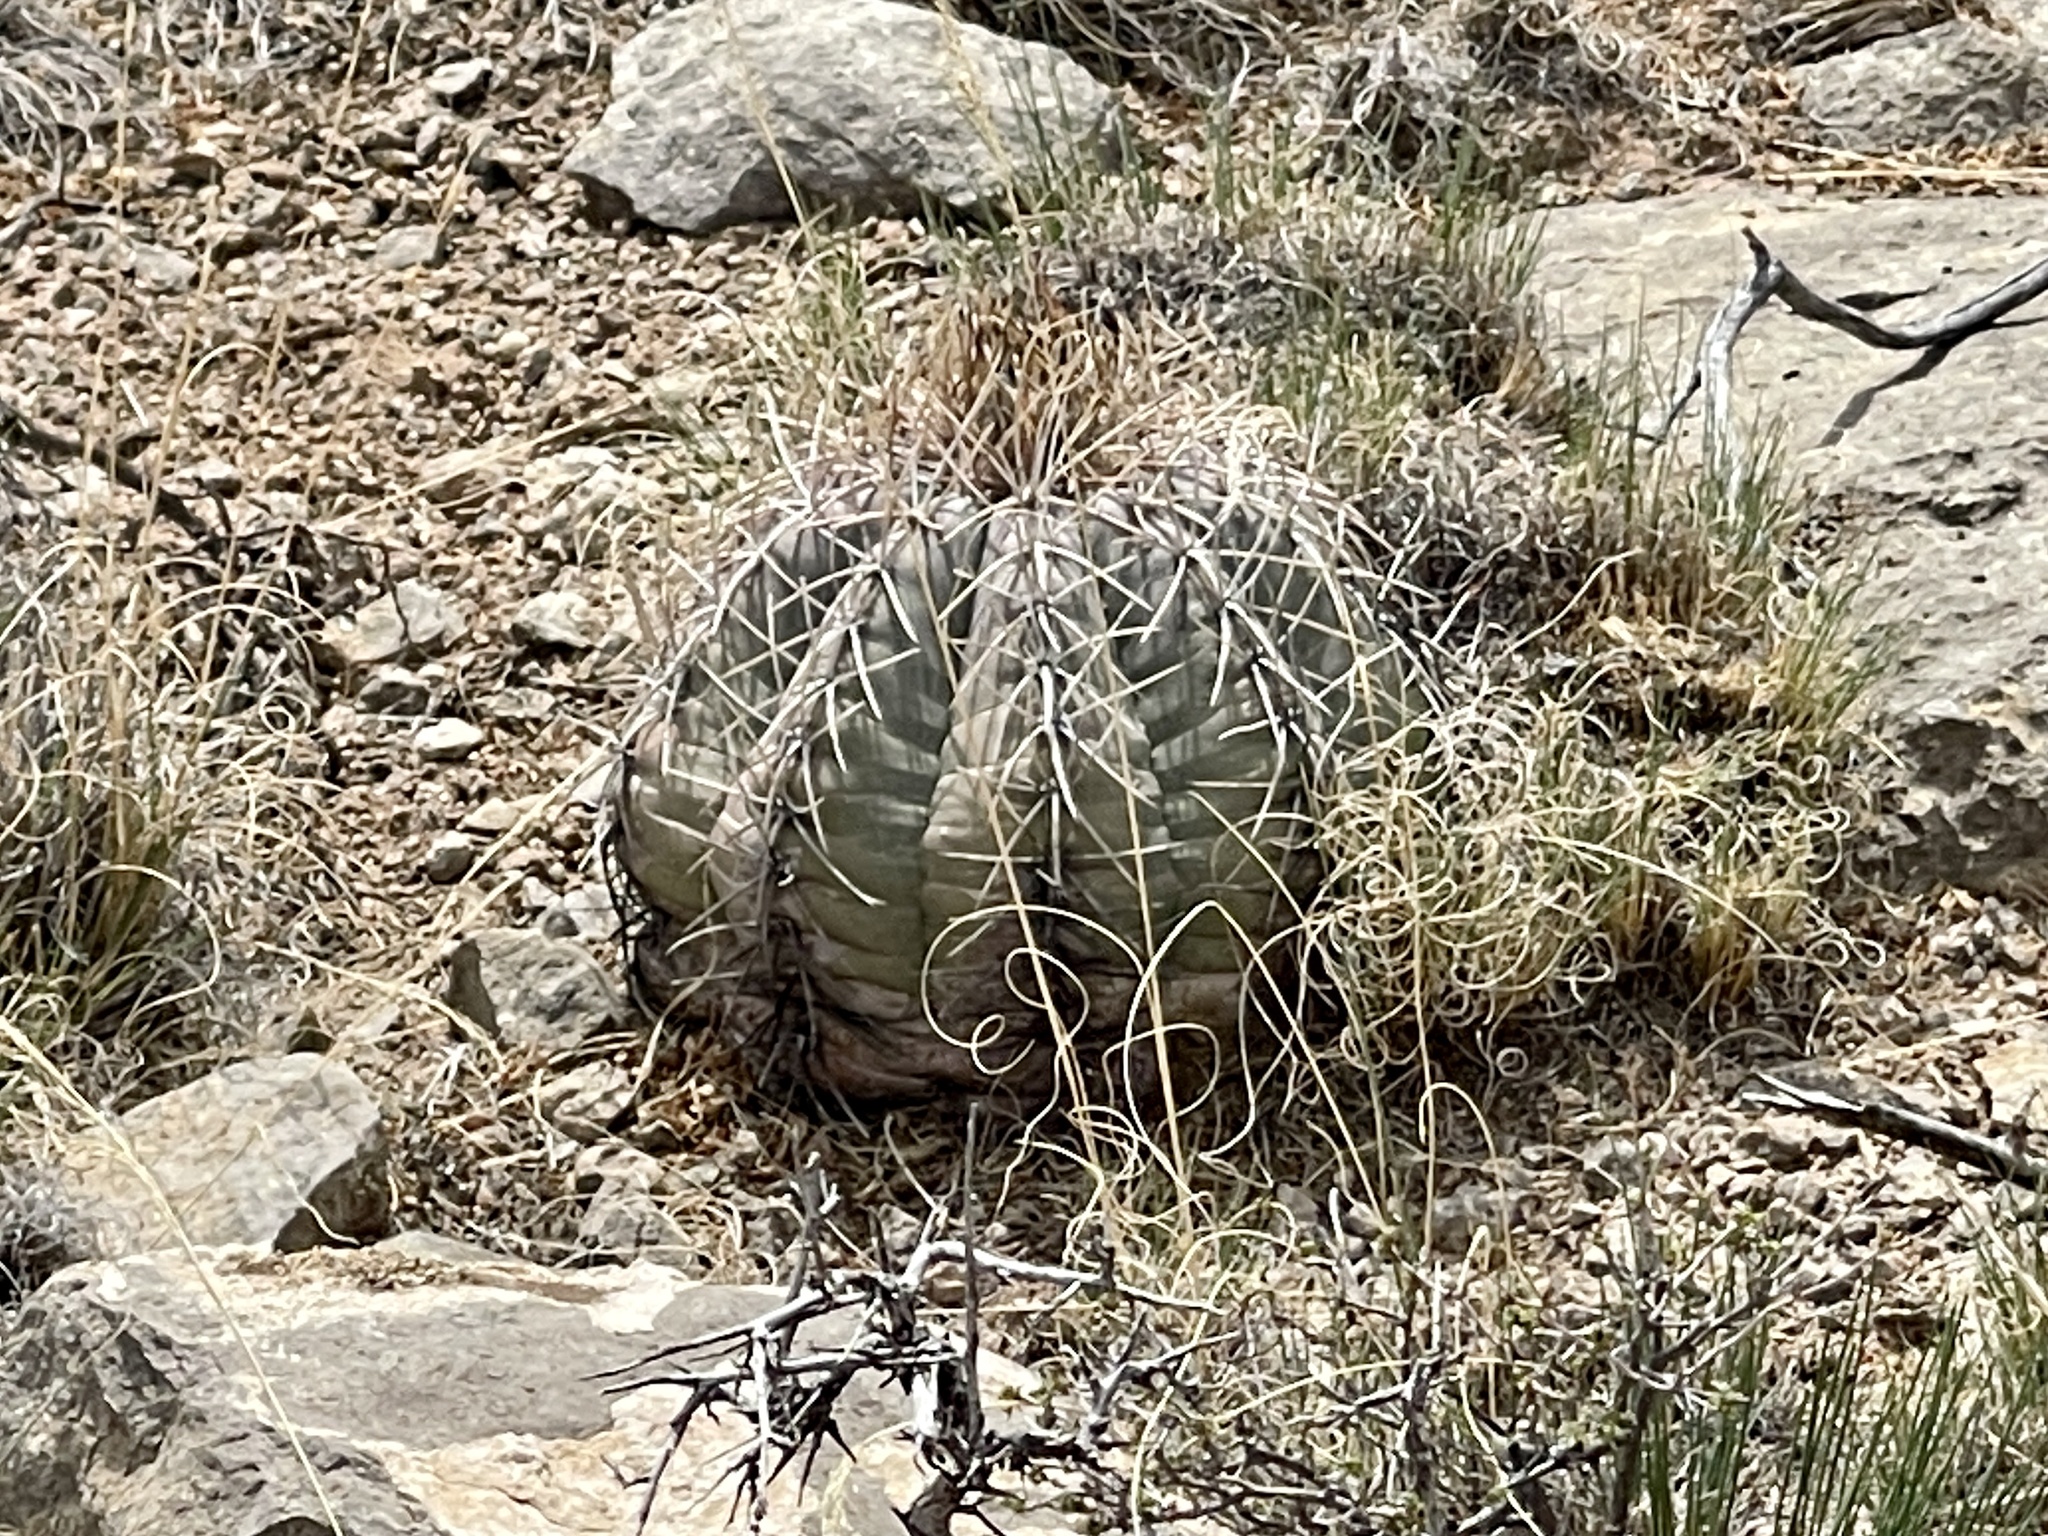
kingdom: Plantae
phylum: Tracheophyta
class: Magnoliopsida
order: Caryophyllales
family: Cactaceae
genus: Echinocactus
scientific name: Echinocactus horizonthalonius
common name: Devilshead
